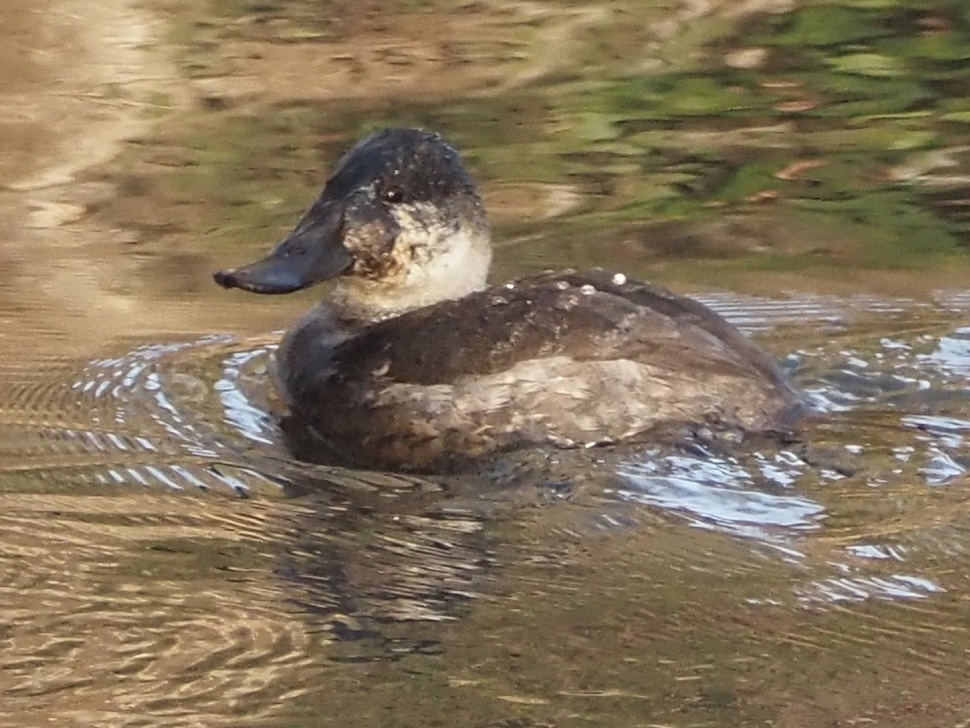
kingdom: Animalia
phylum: Chordata
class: Aves
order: Anseriformes
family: Anatidae
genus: Oxyura
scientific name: Oxyura jamaicensis
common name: Ruddy duck
